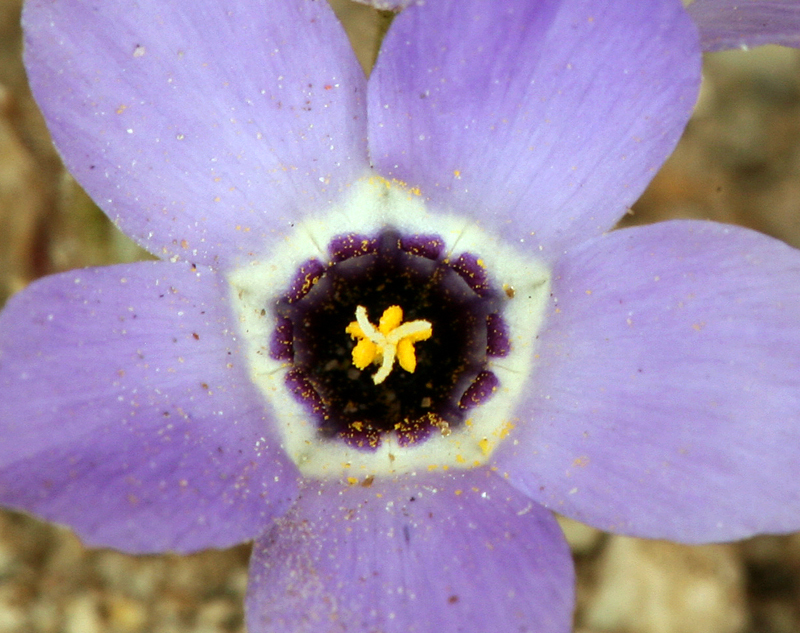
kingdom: Plantae
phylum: Tracheophyta
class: Magnoliopsida
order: Ericales
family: Polemoniaceae
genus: Linanthus
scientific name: Linanthus parryae
